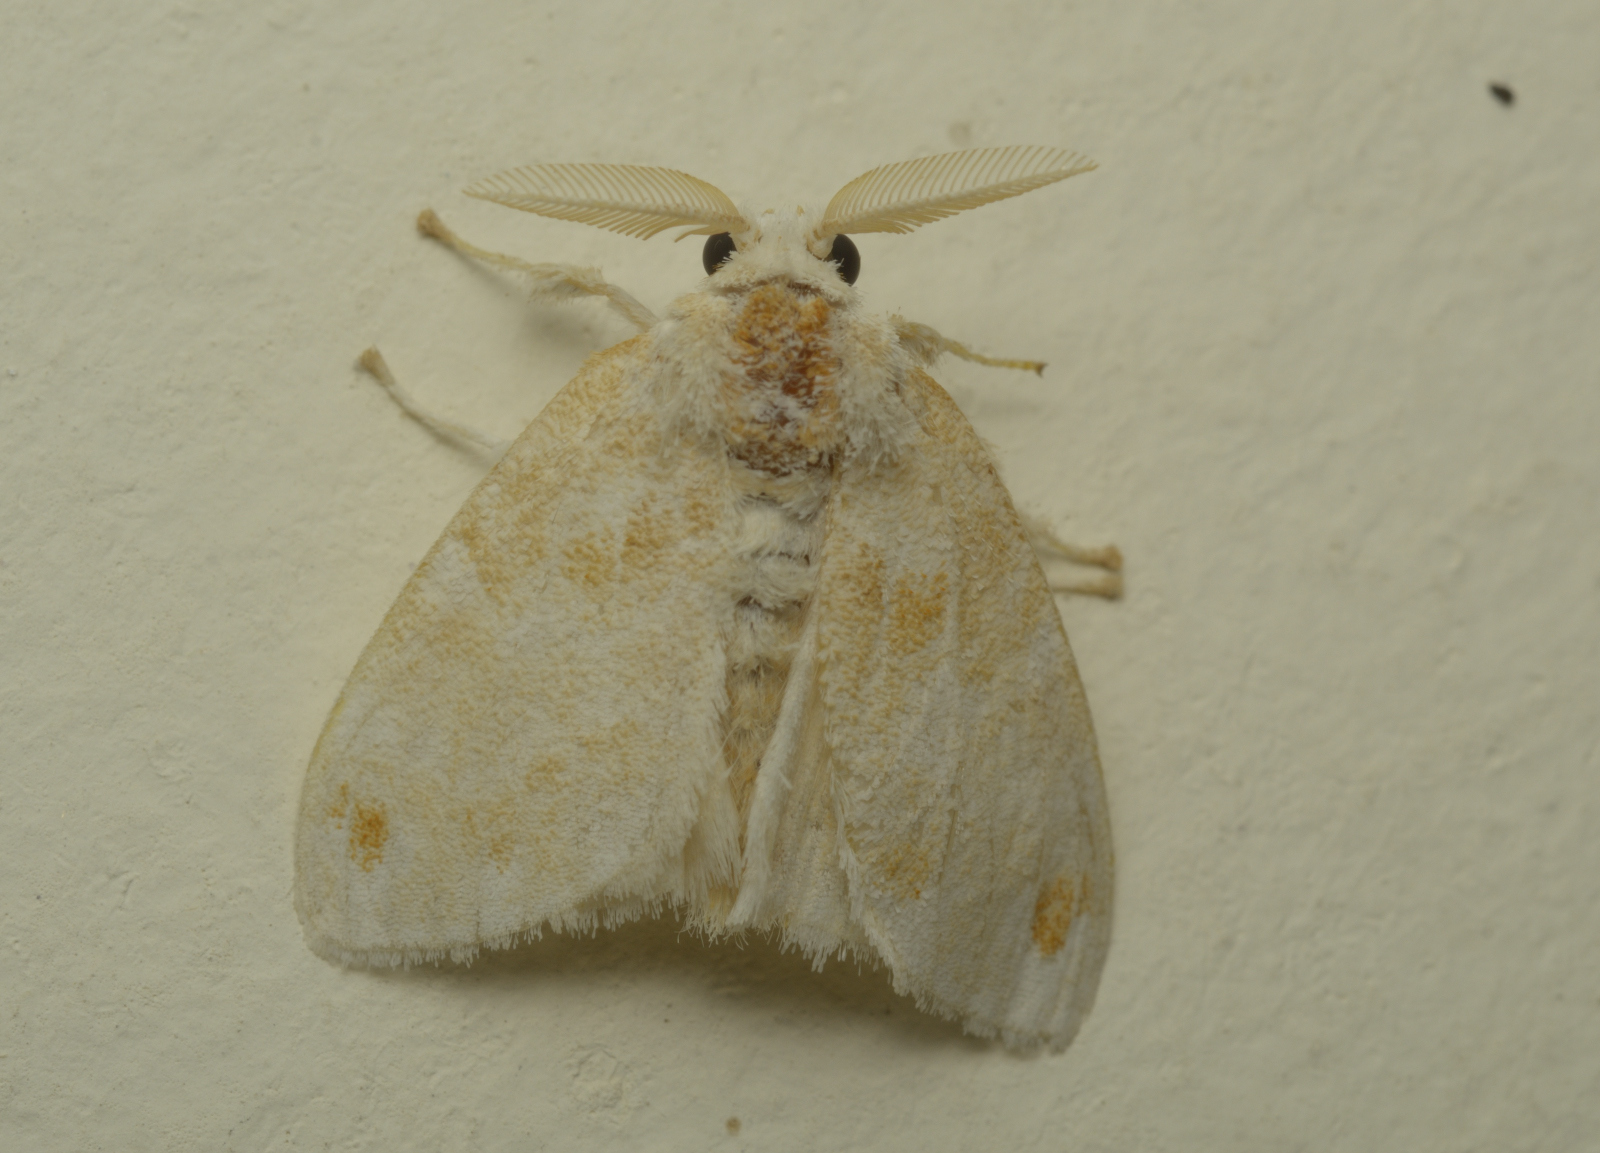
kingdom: Animalia
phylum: Arthropoda
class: Insecta
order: Lepidoptera
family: Erebidae
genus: Sphrageidus
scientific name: Sphrageidus similis
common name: Yellow-tail
